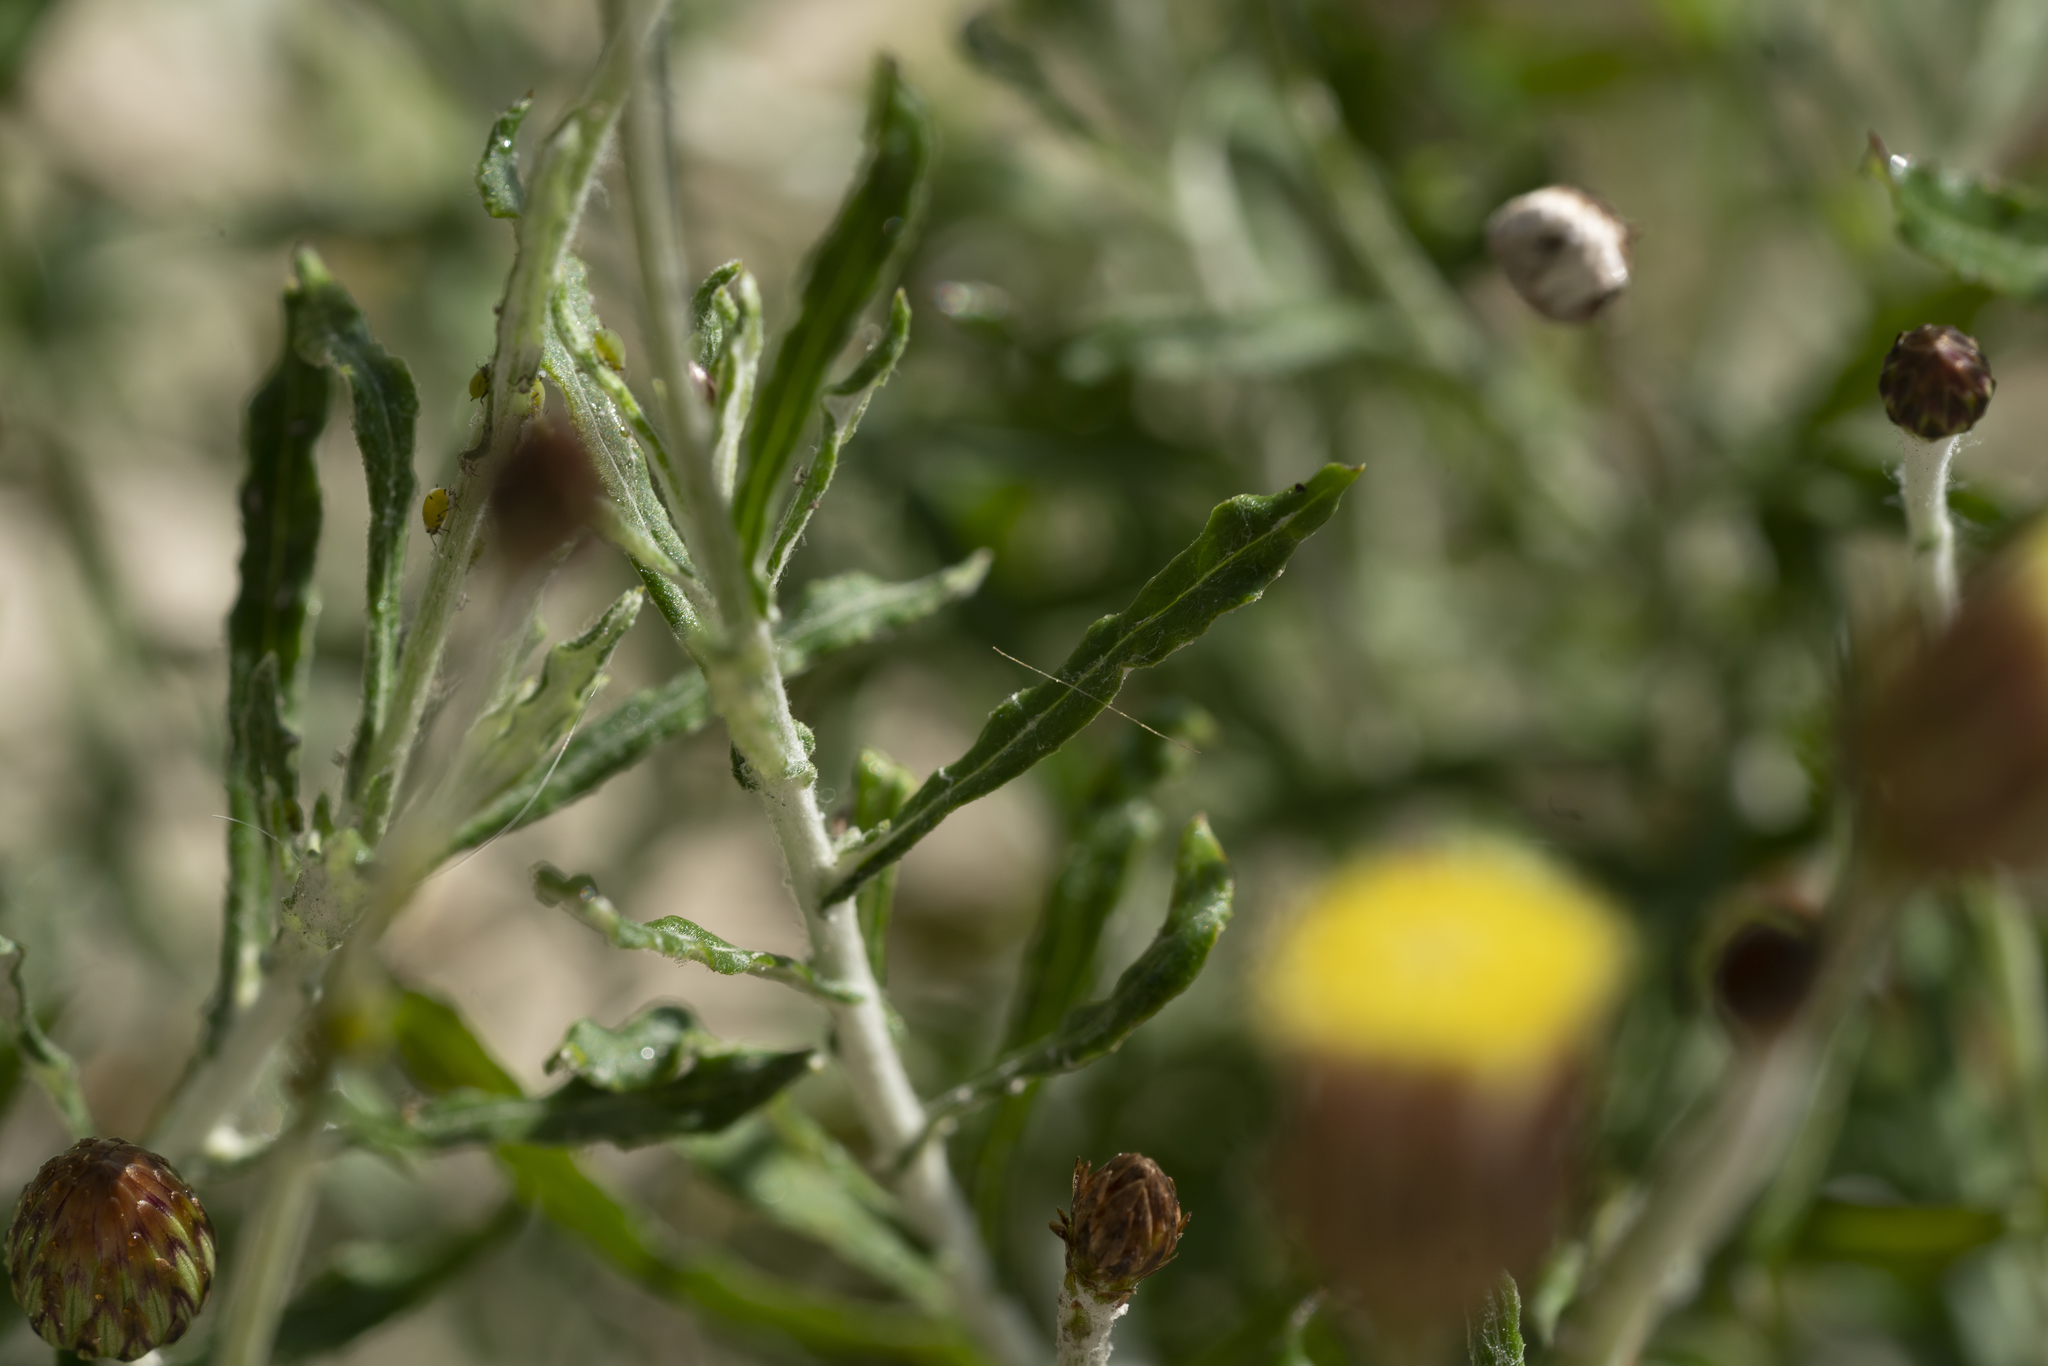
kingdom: Plantae
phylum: Tracheophyta
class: Magnoliopsida
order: Asterales
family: Asteraceae
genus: Phagnalon
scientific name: Phagnalon graecum
